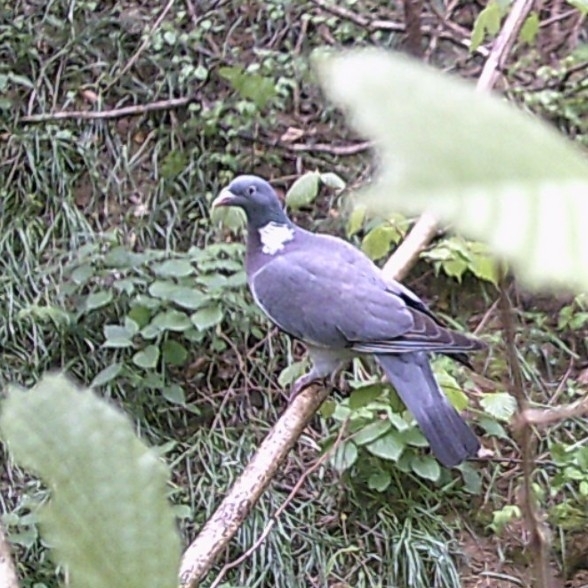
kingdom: Animalia
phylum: Chordata
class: Aves
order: Columbiformes
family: Columbidae
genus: Columba
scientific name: Columba palumbus
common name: Common wood pigeon
